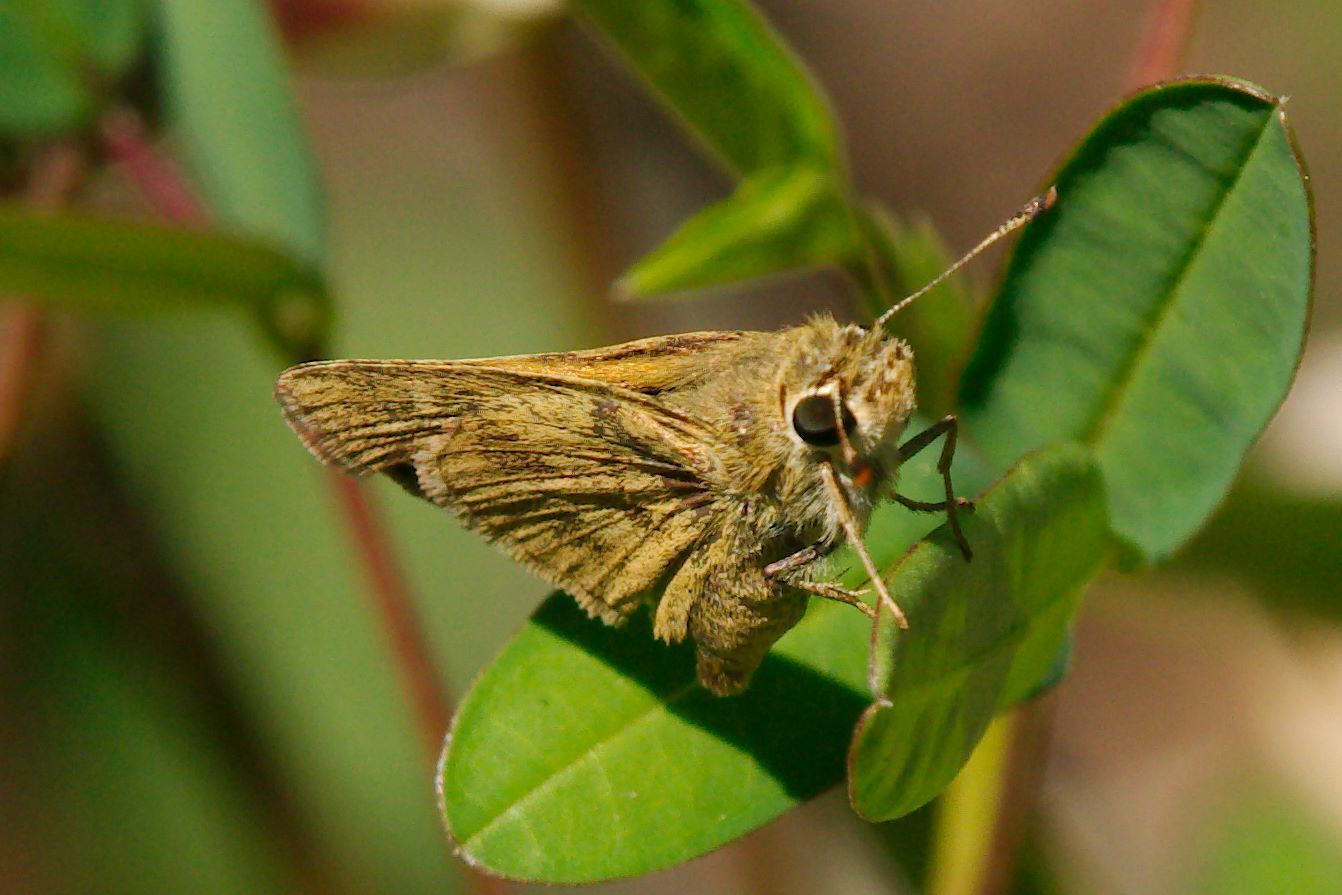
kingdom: Animalia
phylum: Arthropoda
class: Insecta
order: Lepidoptera
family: Hesperiidae
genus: Polites
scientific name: Polites vibex
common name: Whirlabout
